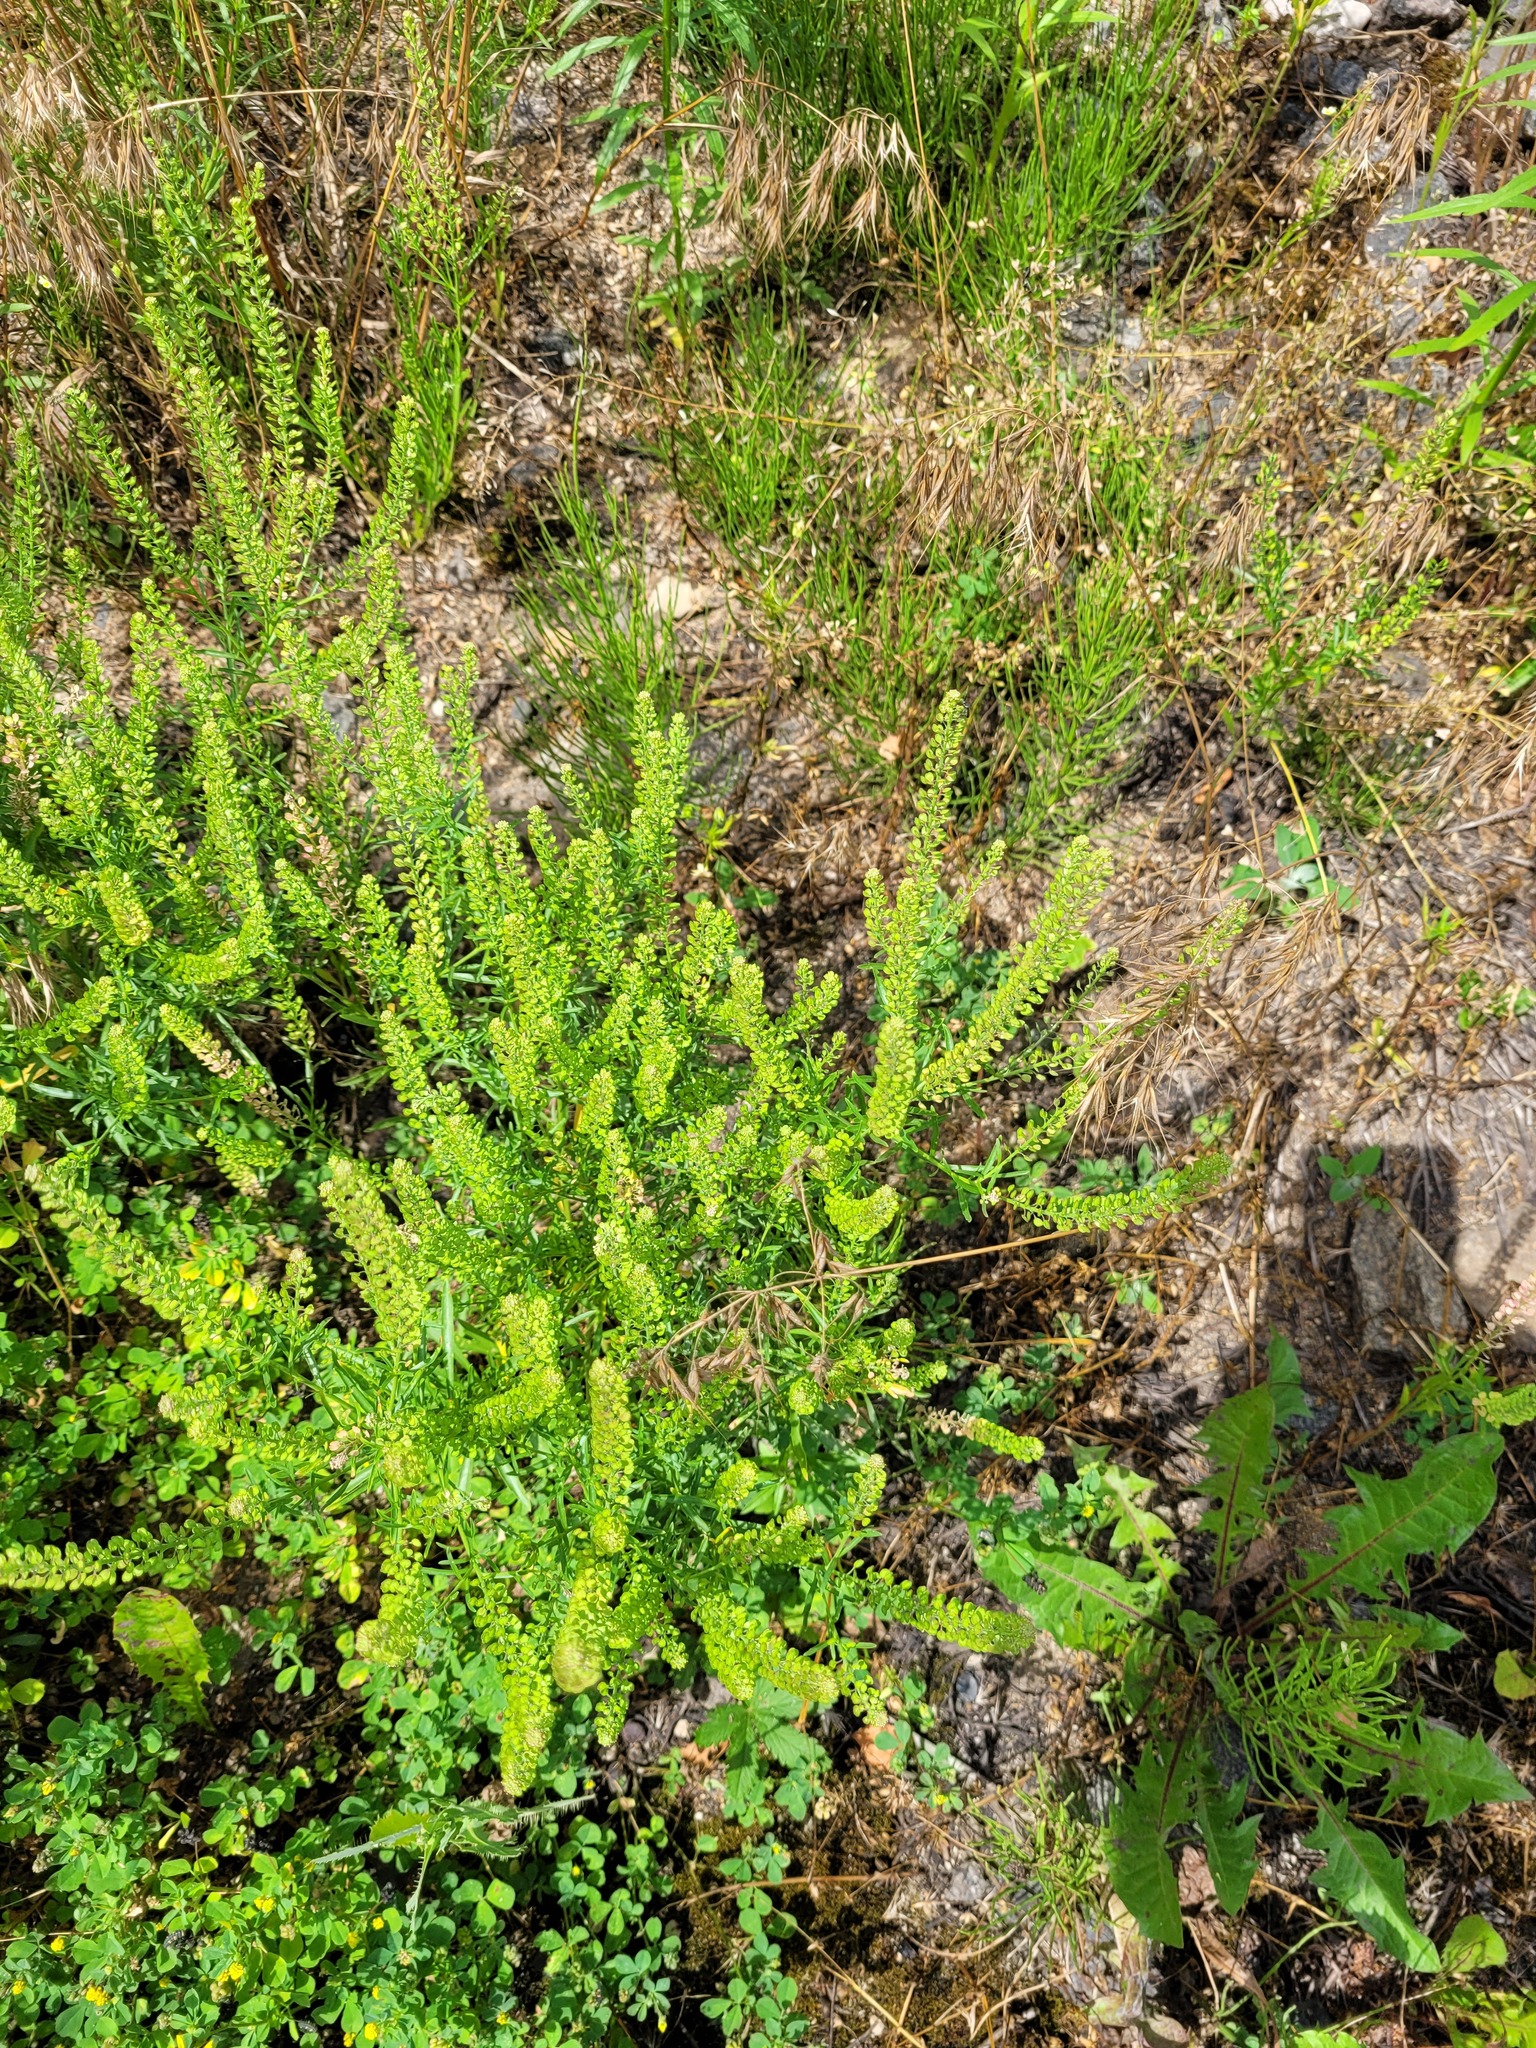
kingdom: Plantae
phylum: Tracheophyta
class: Magnoliopsida
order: Brassicales
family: Brassicaceae
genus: Lepidium
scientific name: Lepidium densiflorum
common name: Miner's pepperwort
